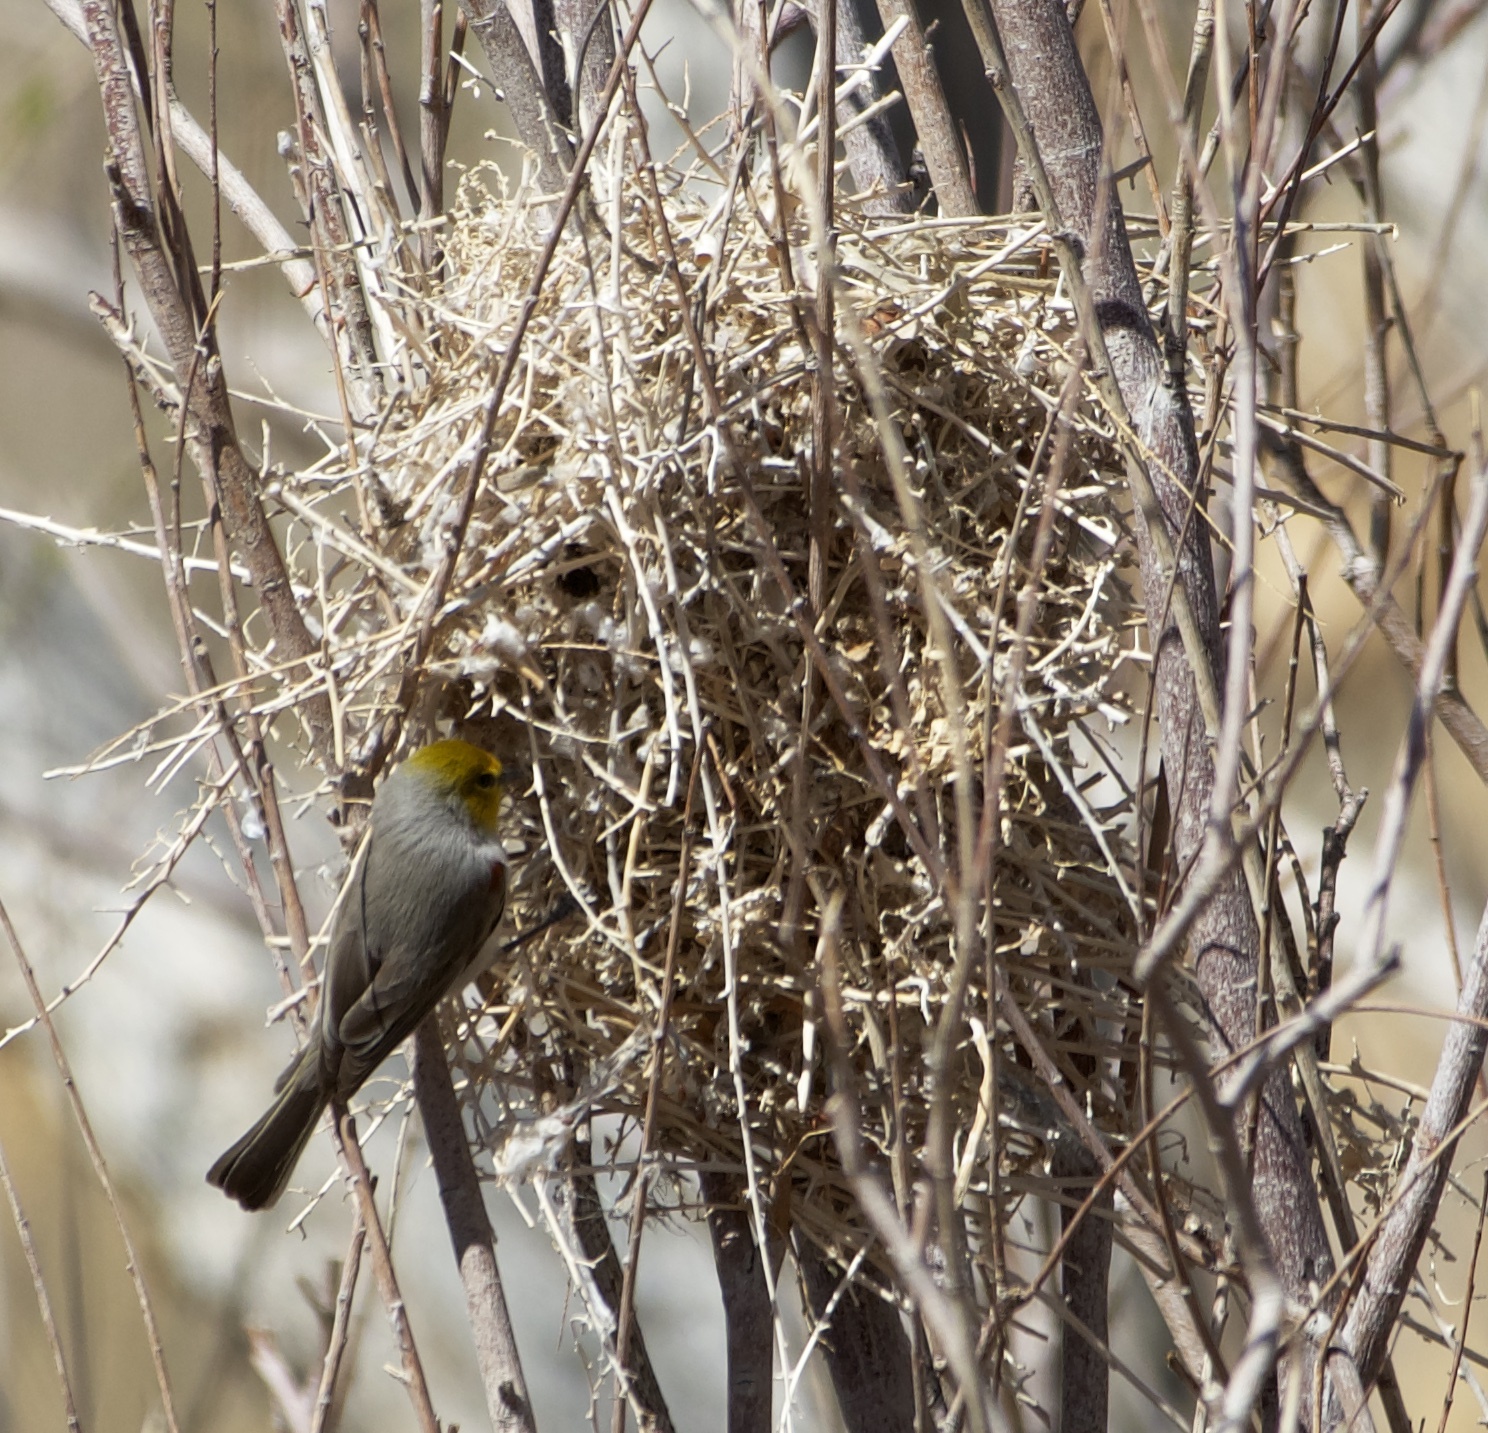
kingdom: Animalia
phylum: Chordata
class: Aves
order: Passeriformes
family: Remizidae
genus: Auriparus
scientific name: Auriparus flaviceps
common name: Verdin
